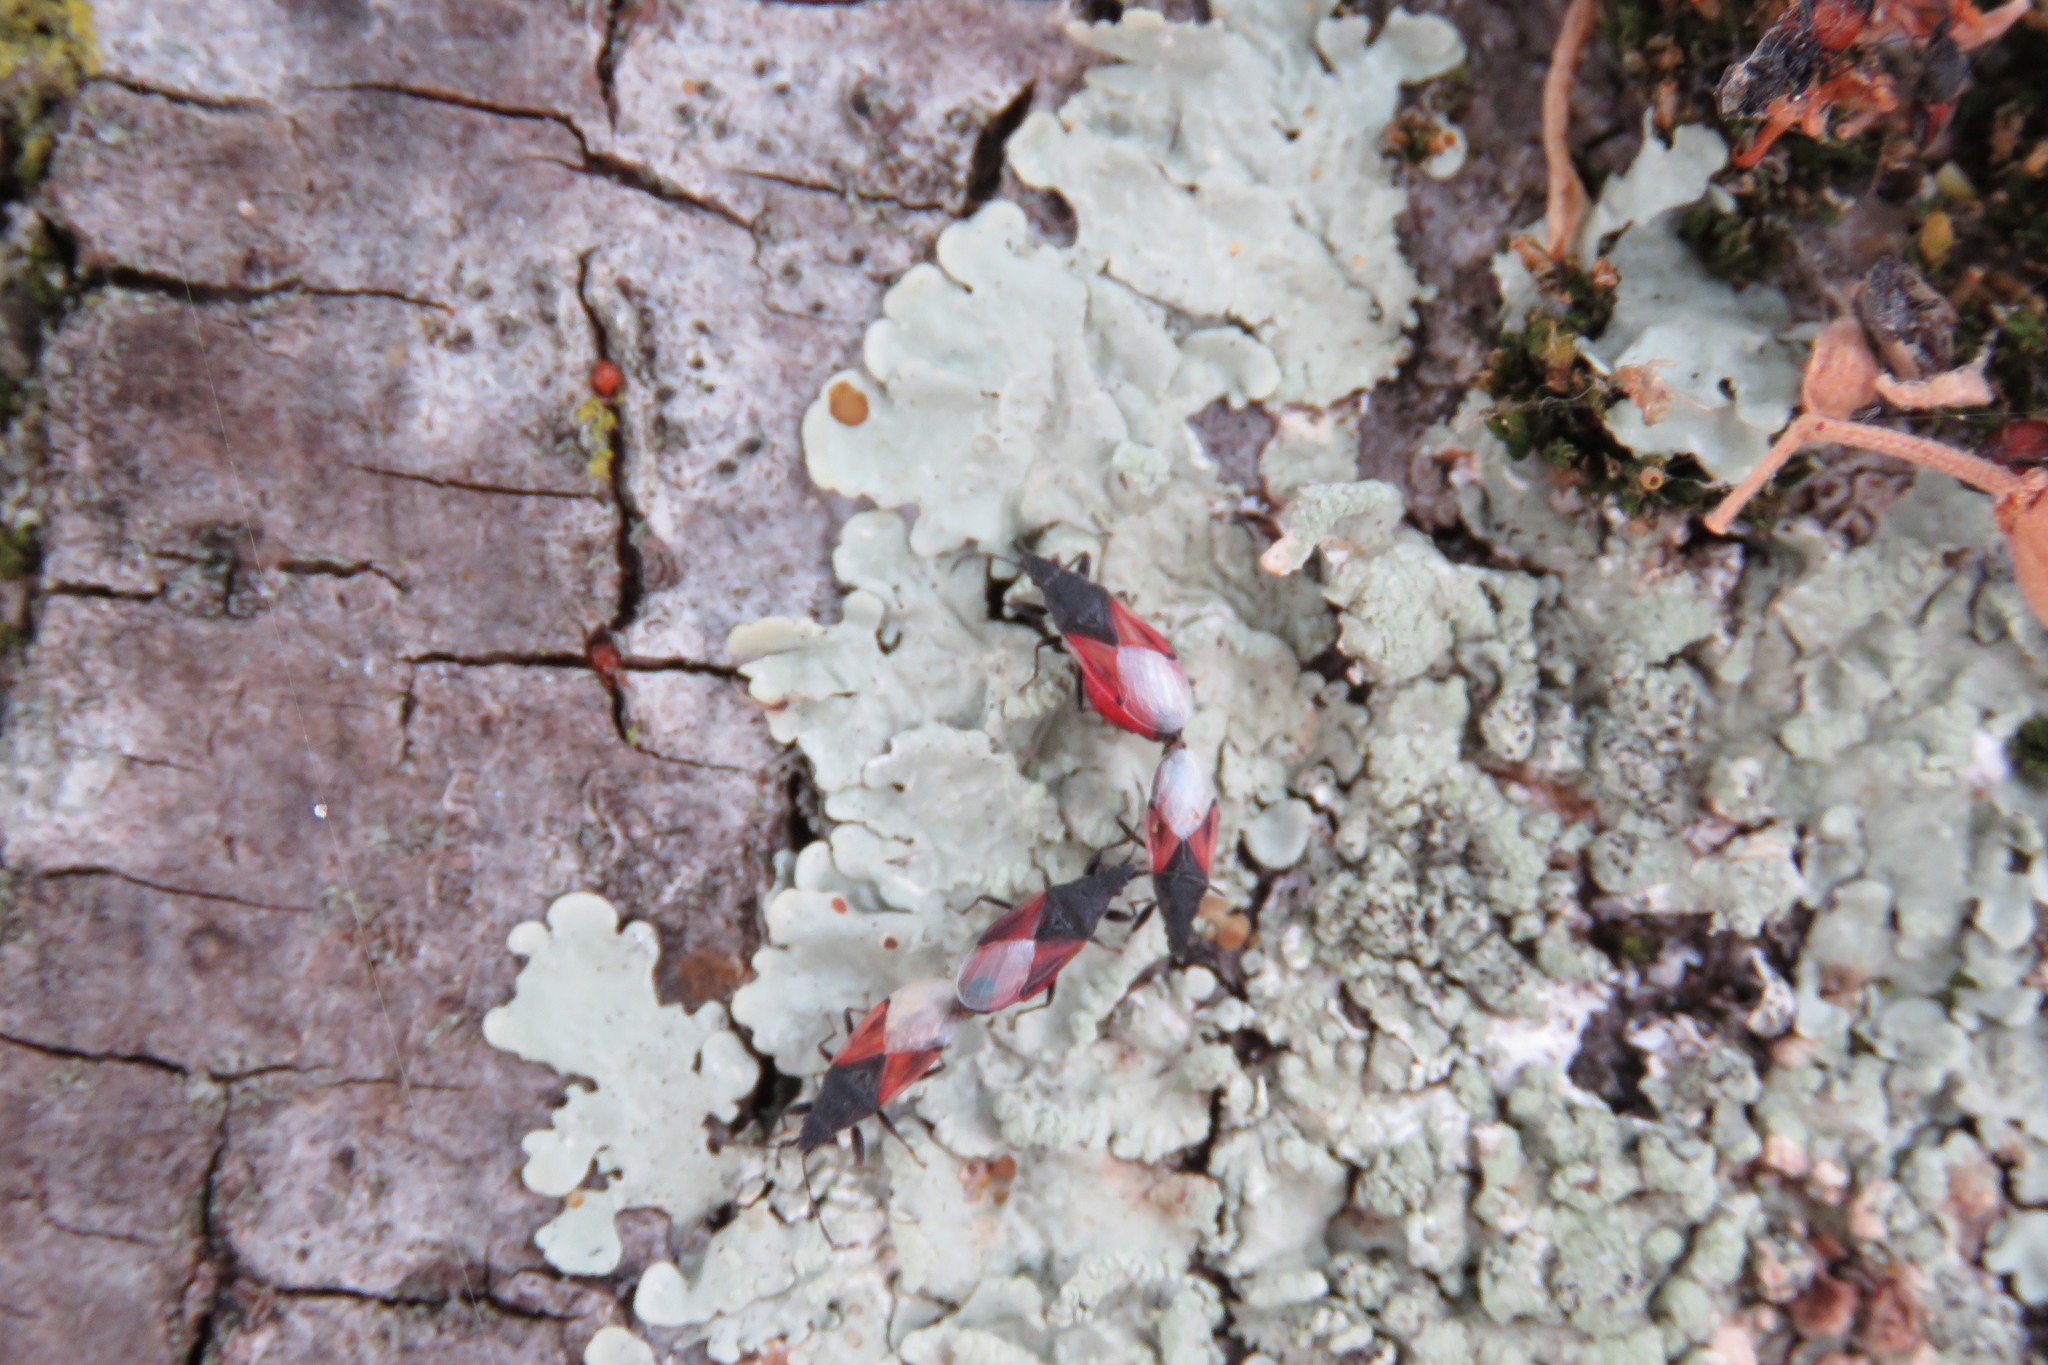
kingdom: Animalia
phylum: Arthropoda
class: Insecta
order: Hemiptera
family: Oxycarenidae
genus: Oxycarenus
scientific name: Oxycarenus lavaterae
